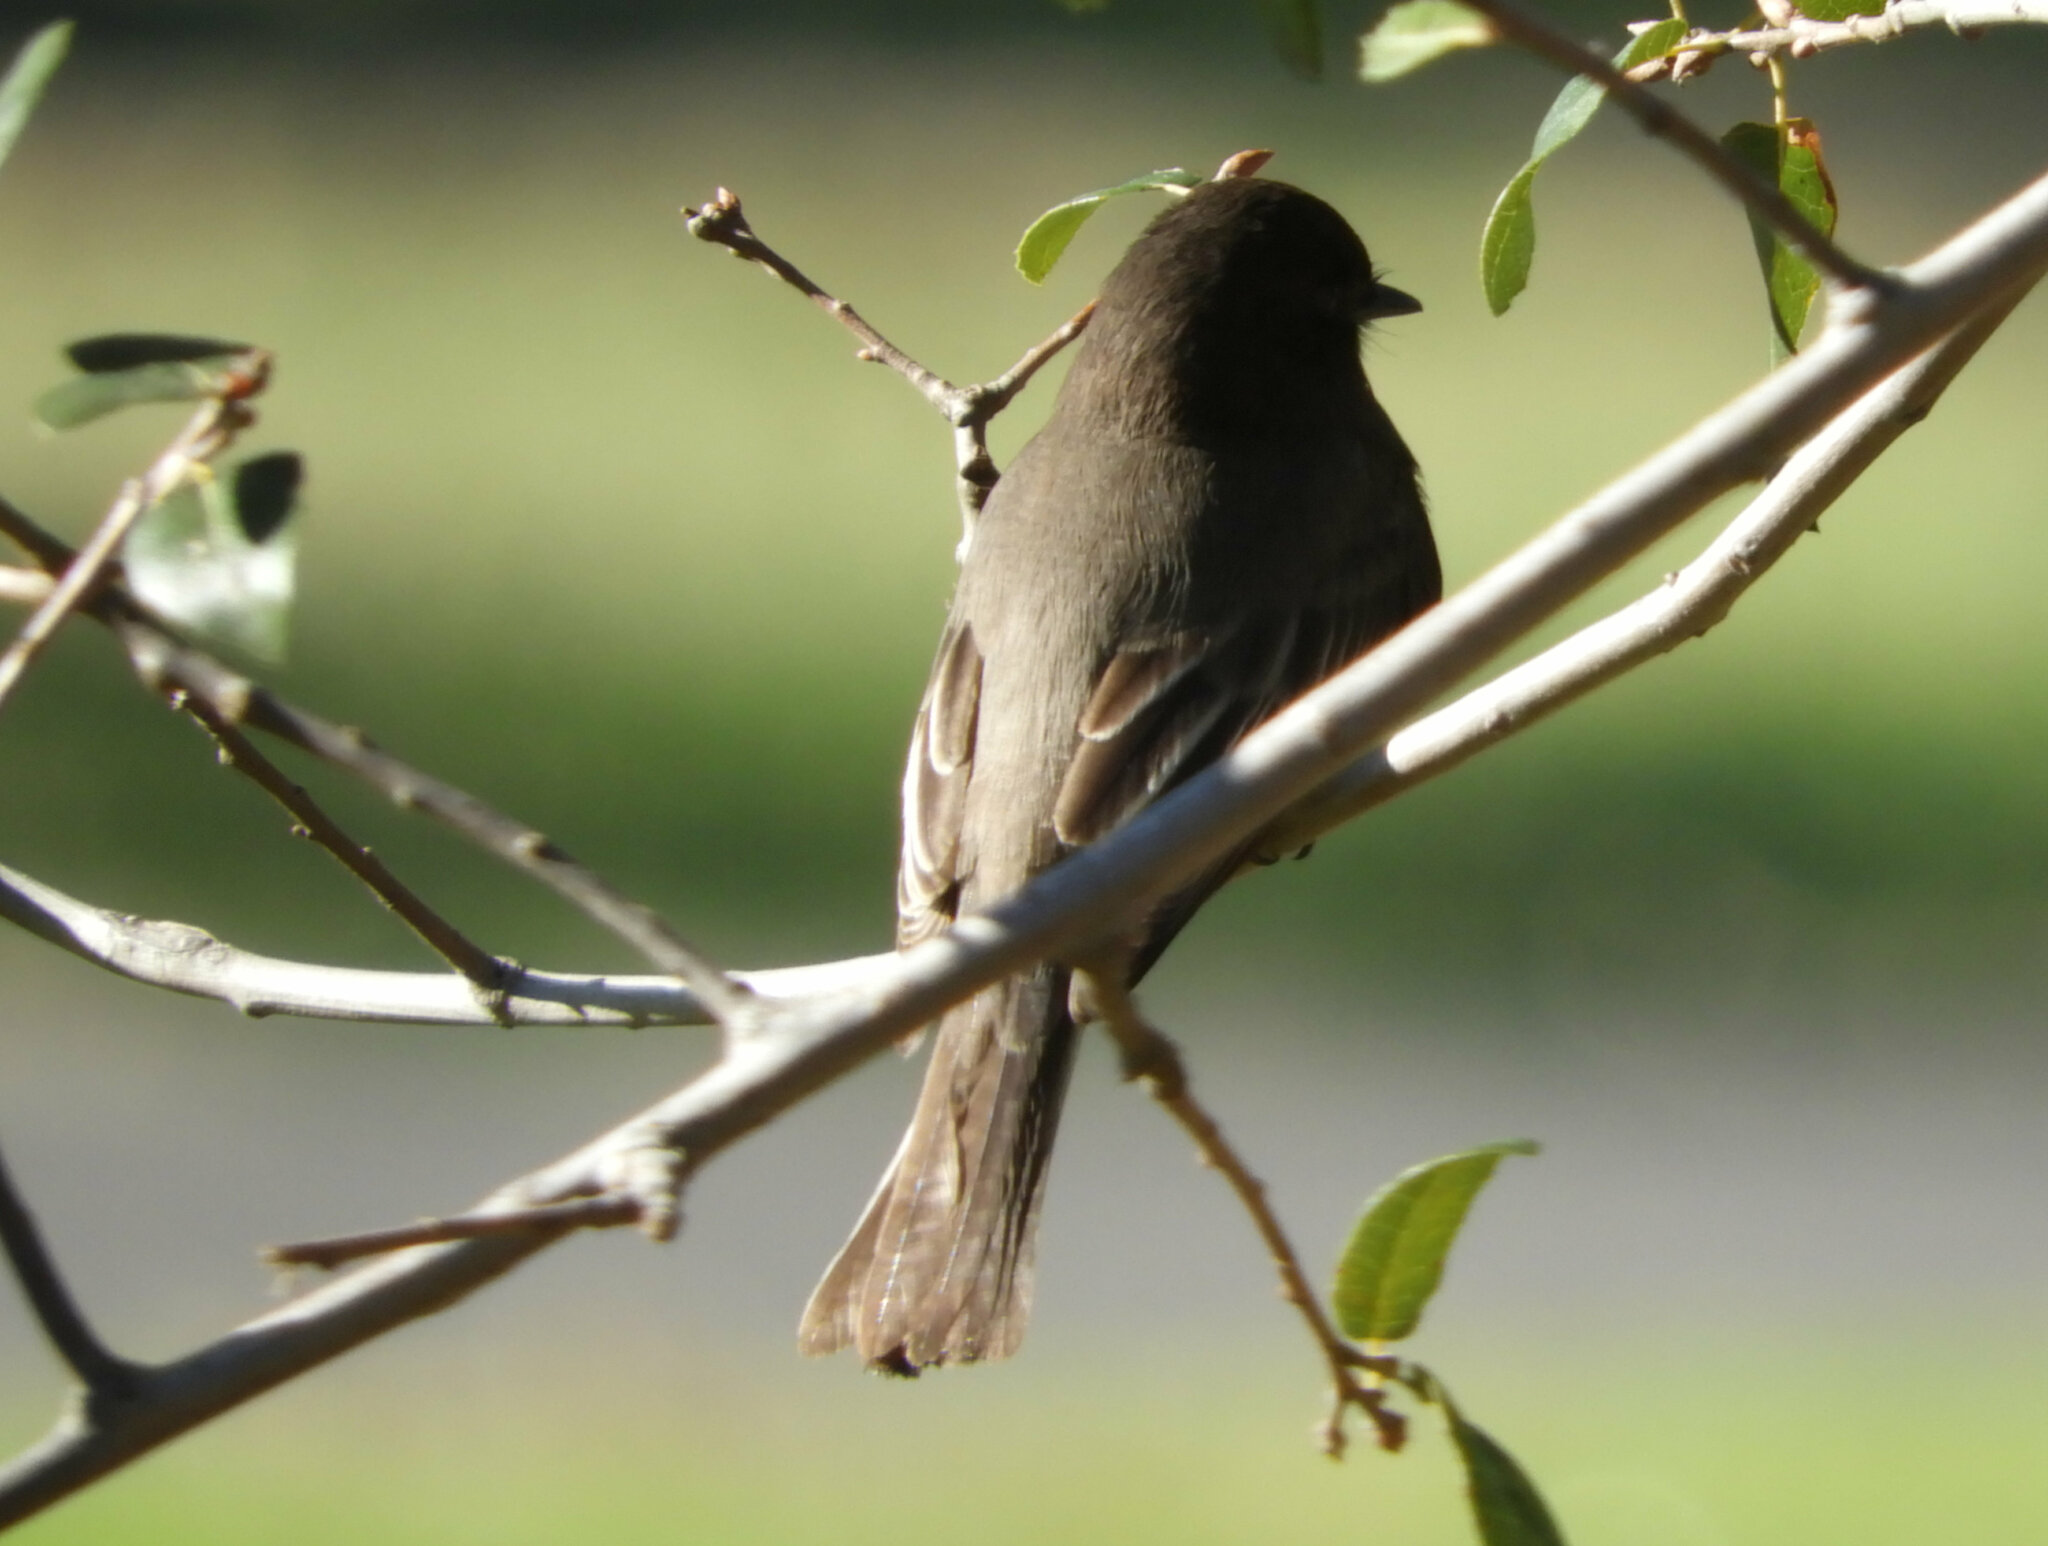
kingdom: Animalia
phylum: Chordata
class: Aves
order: Passeriformes
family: Tyrannidae
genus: Sayornis
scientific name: Sayornis nigricans
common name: Black phoebe
